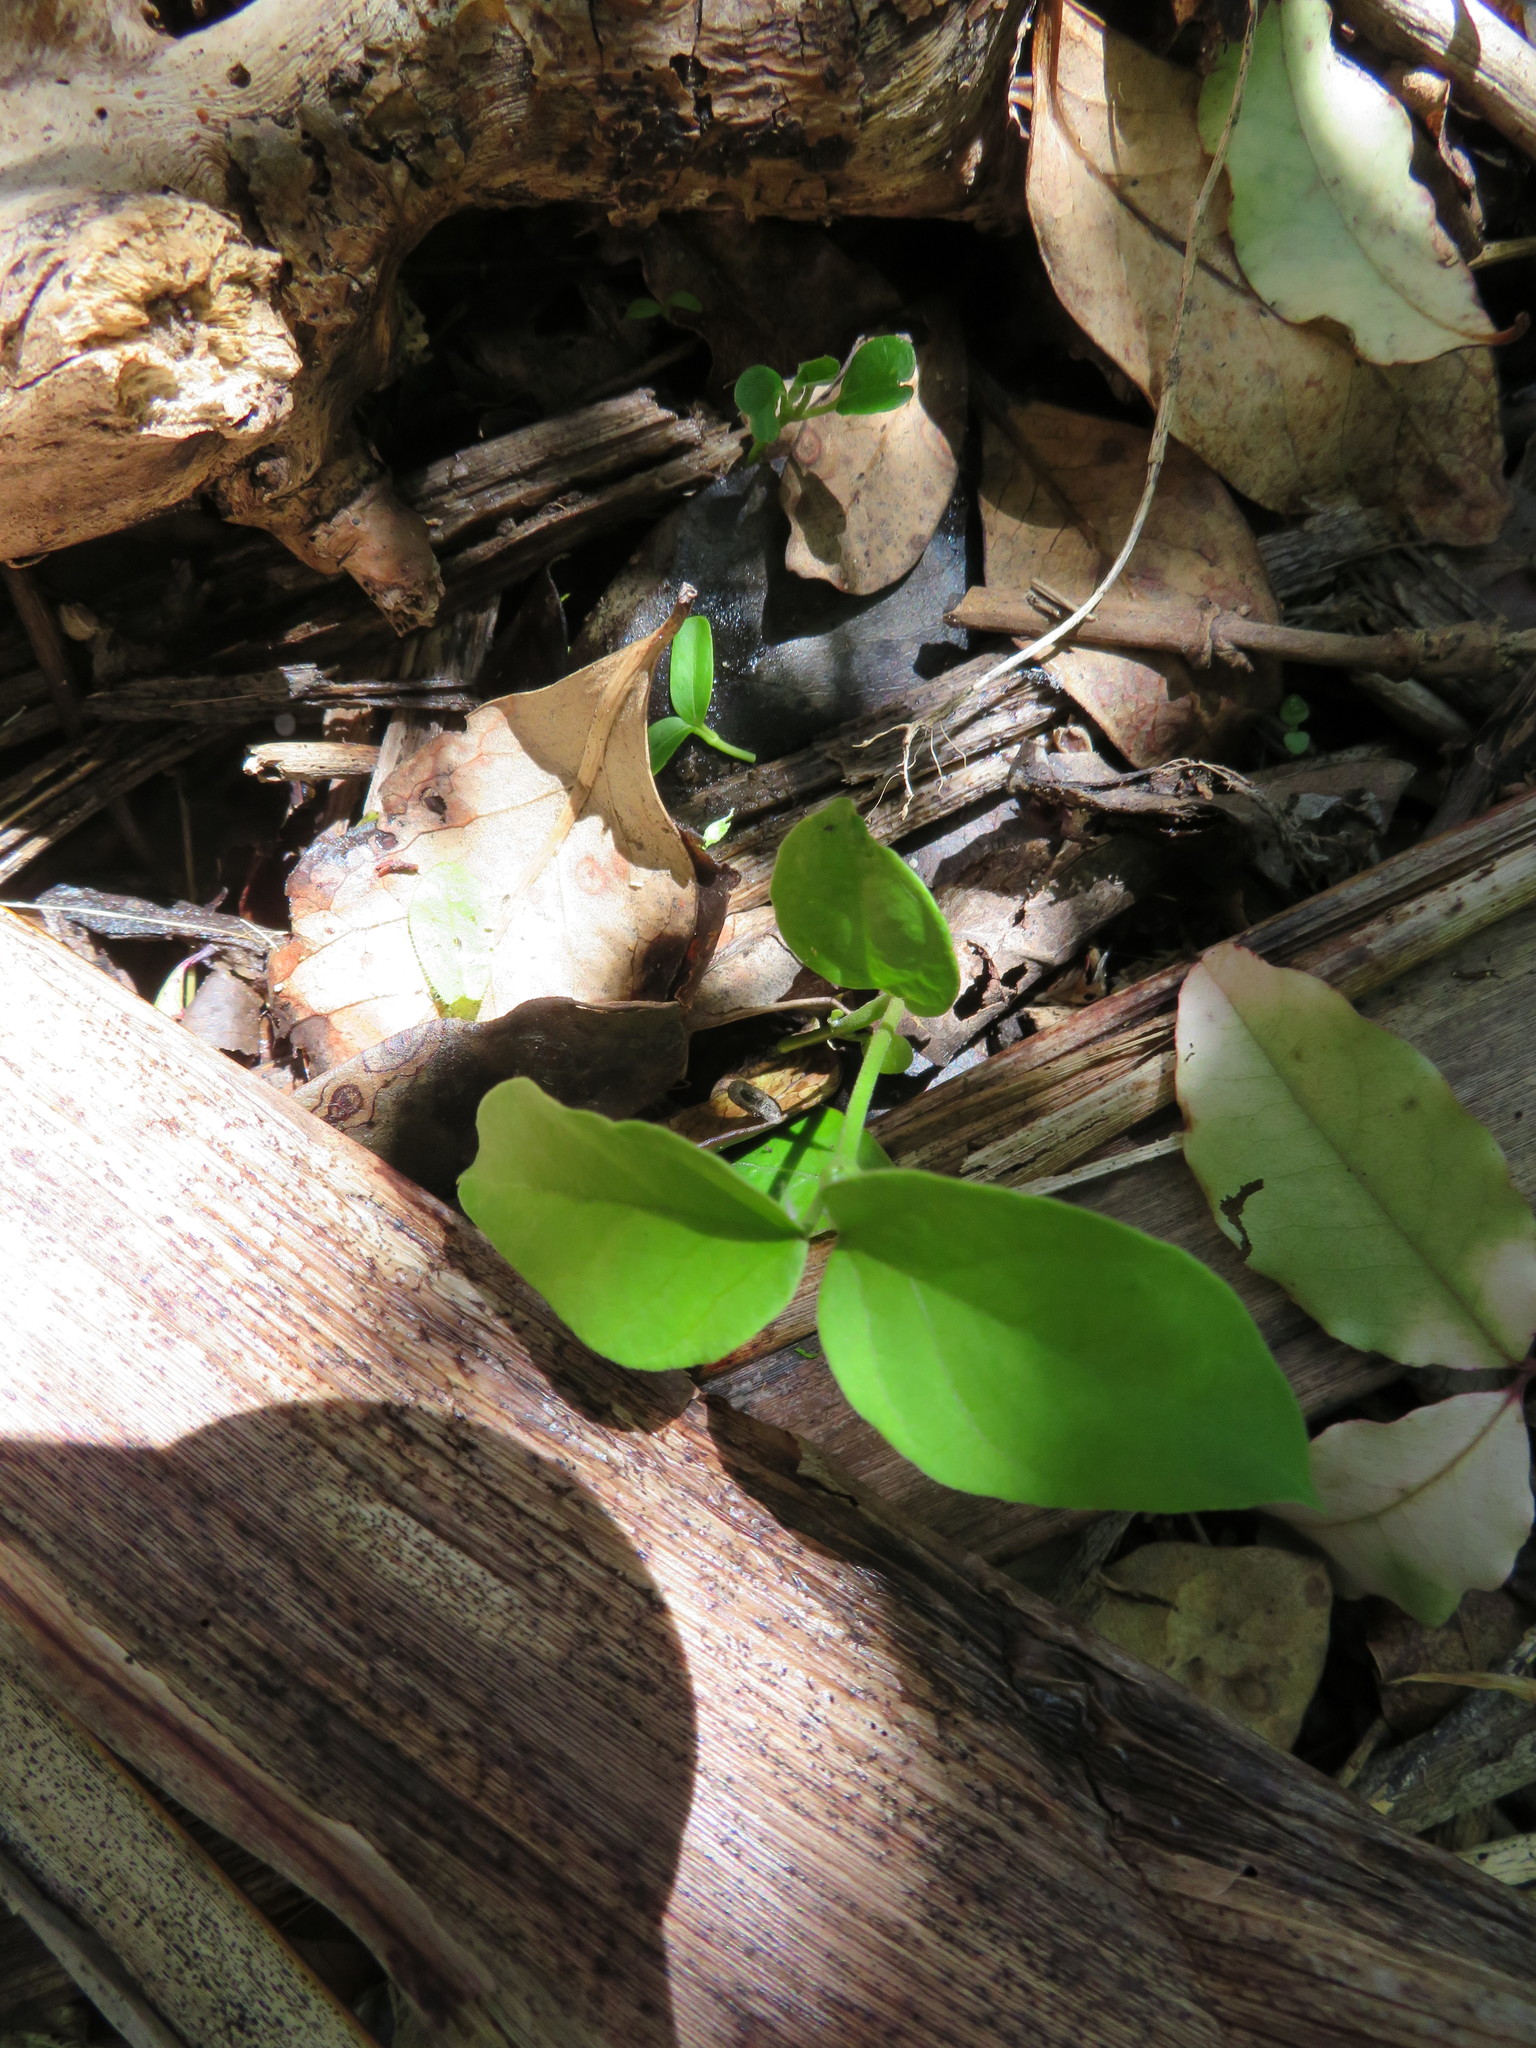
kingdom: Plantae
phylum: Tracheophyta
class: Magnoliopsida
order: Gentianales
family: Apocynaceae
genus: Araujia
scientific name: Araujia sericifera
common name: White bladderflower
